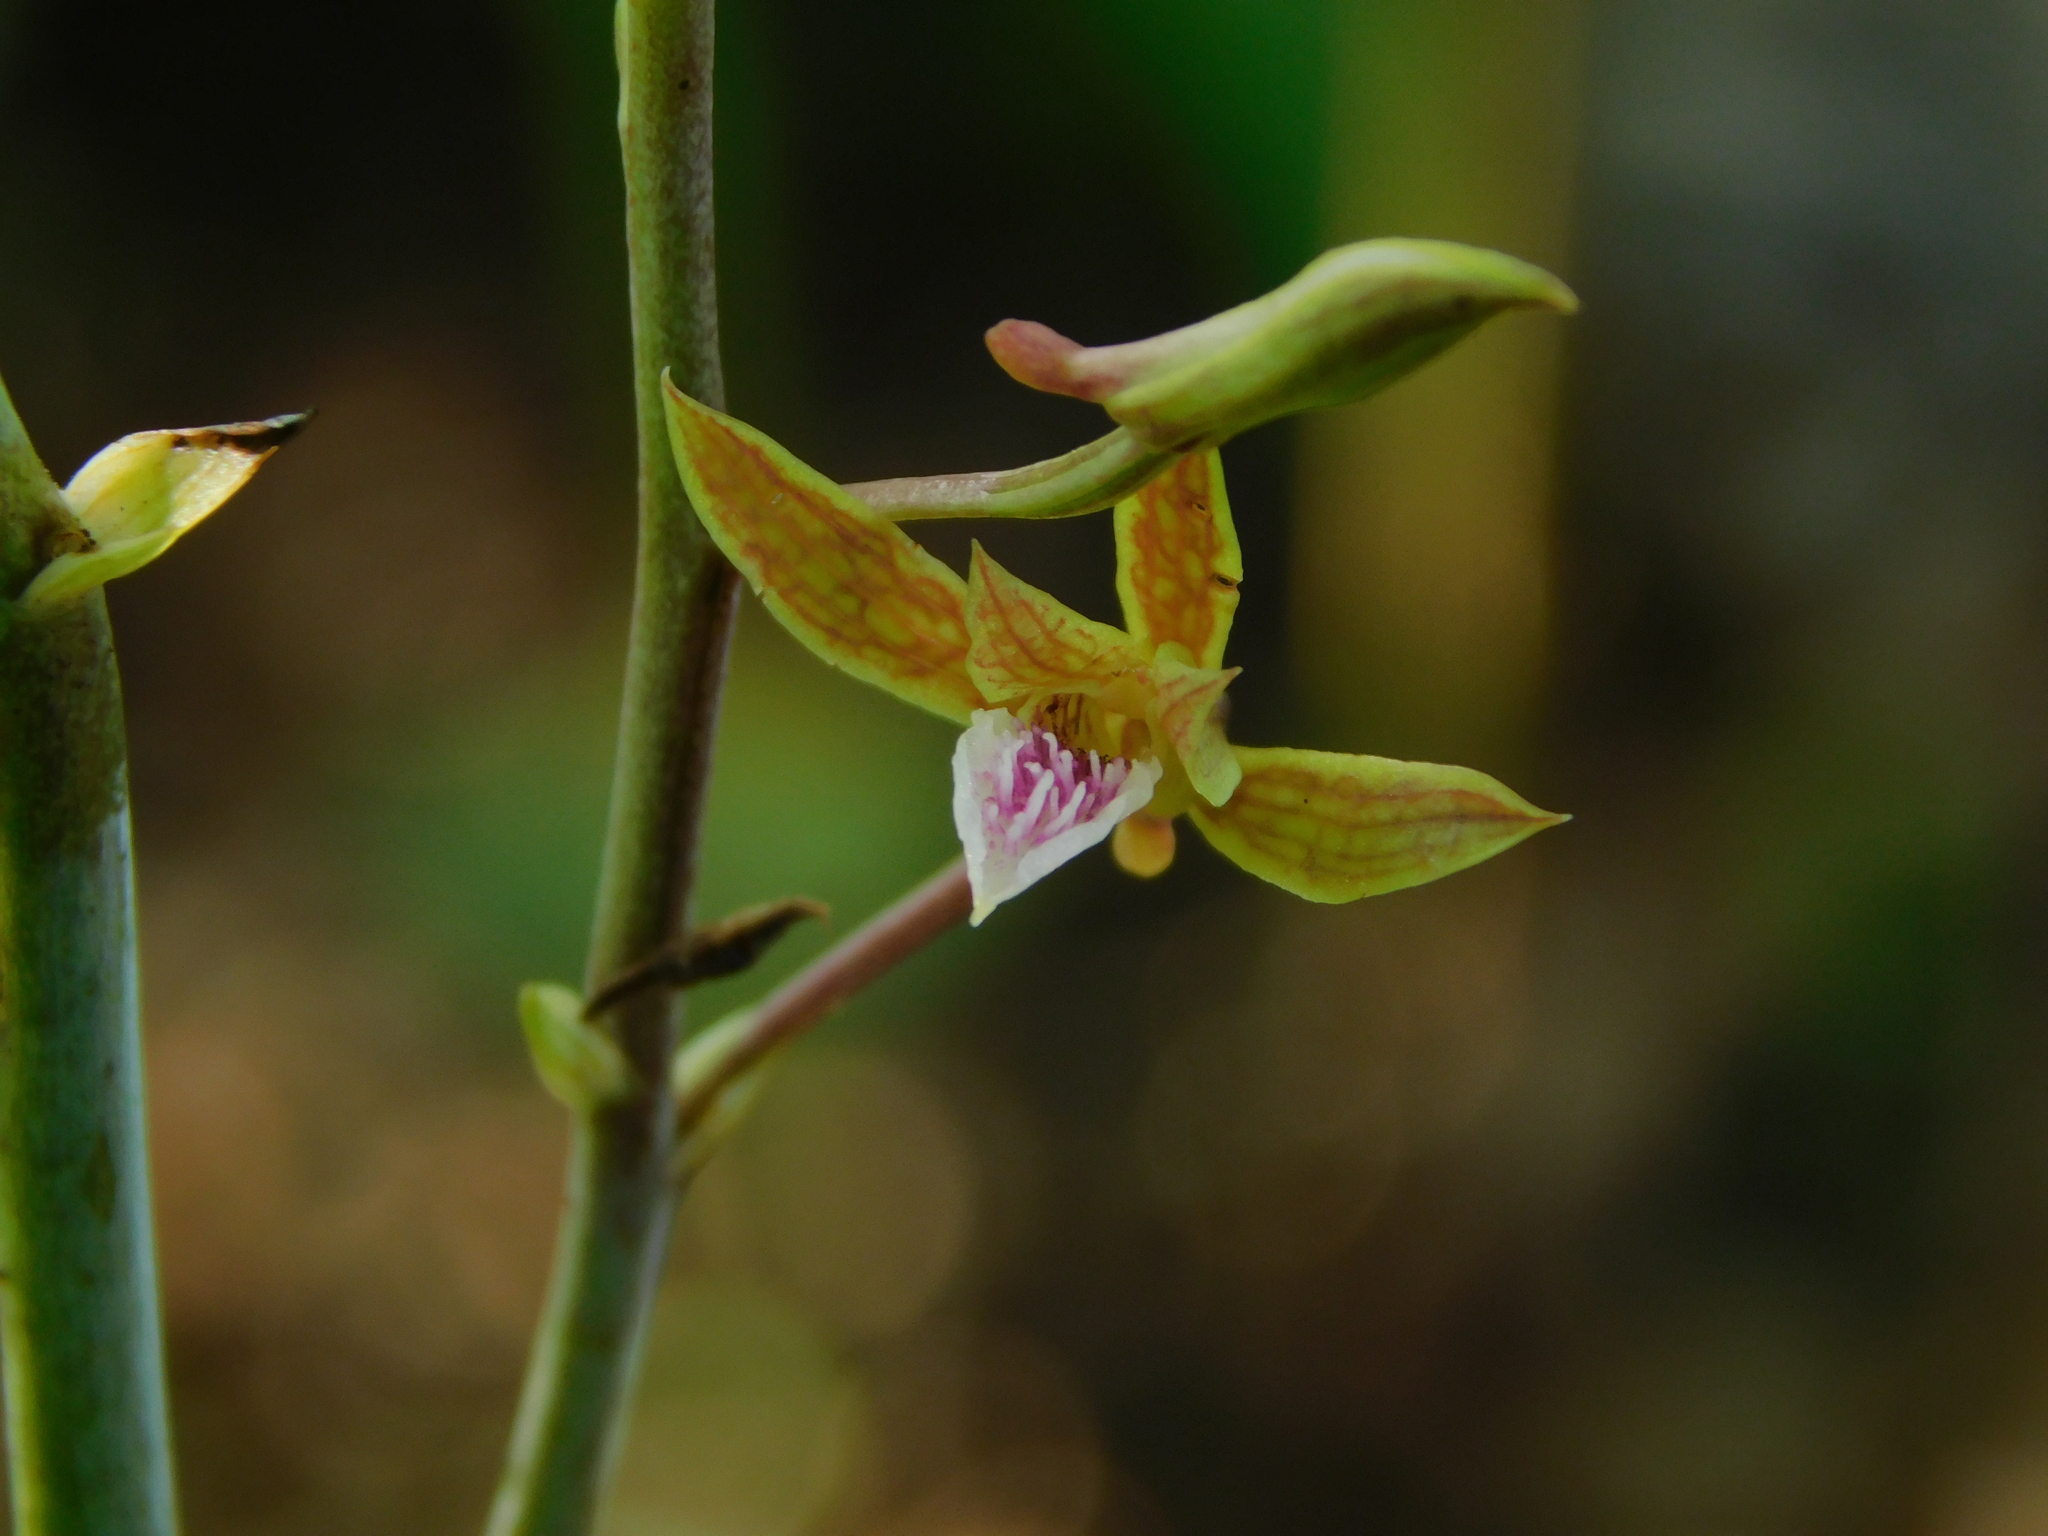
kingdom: Plantae
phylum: Tracheophyta
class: Liliopsida
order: Asparagales
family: Orchidaceae
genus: Eulophia
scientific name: Eulophia graminea
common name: Orchid
